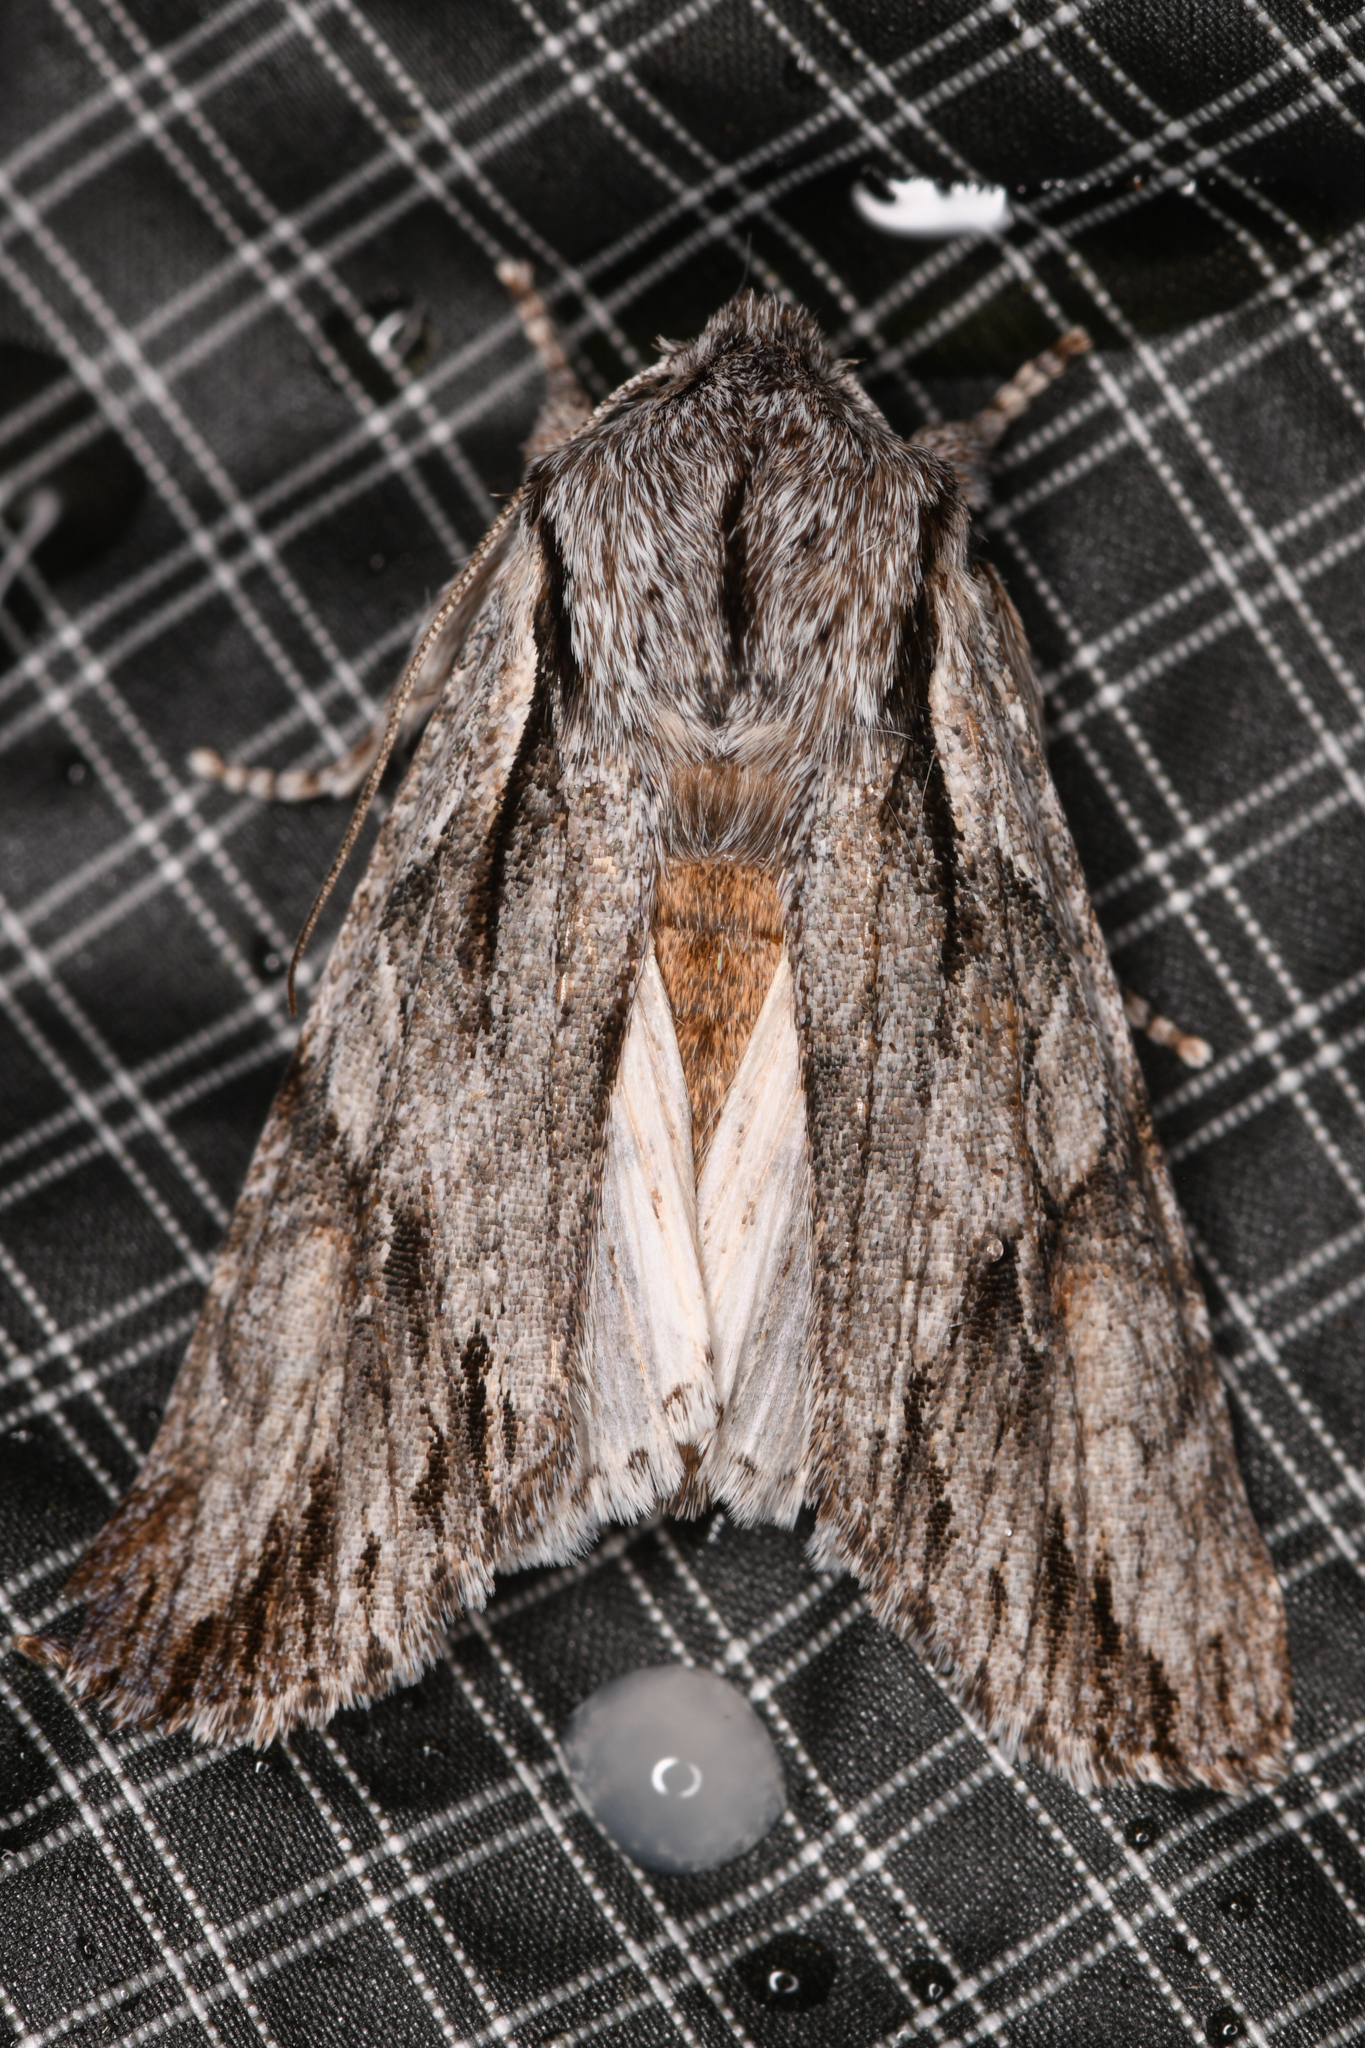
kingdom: Animalia
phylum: Arthropoda
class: Insecta
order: Lepidoptera
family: Noctuidae
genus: Egira
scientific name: Egira crucialis
